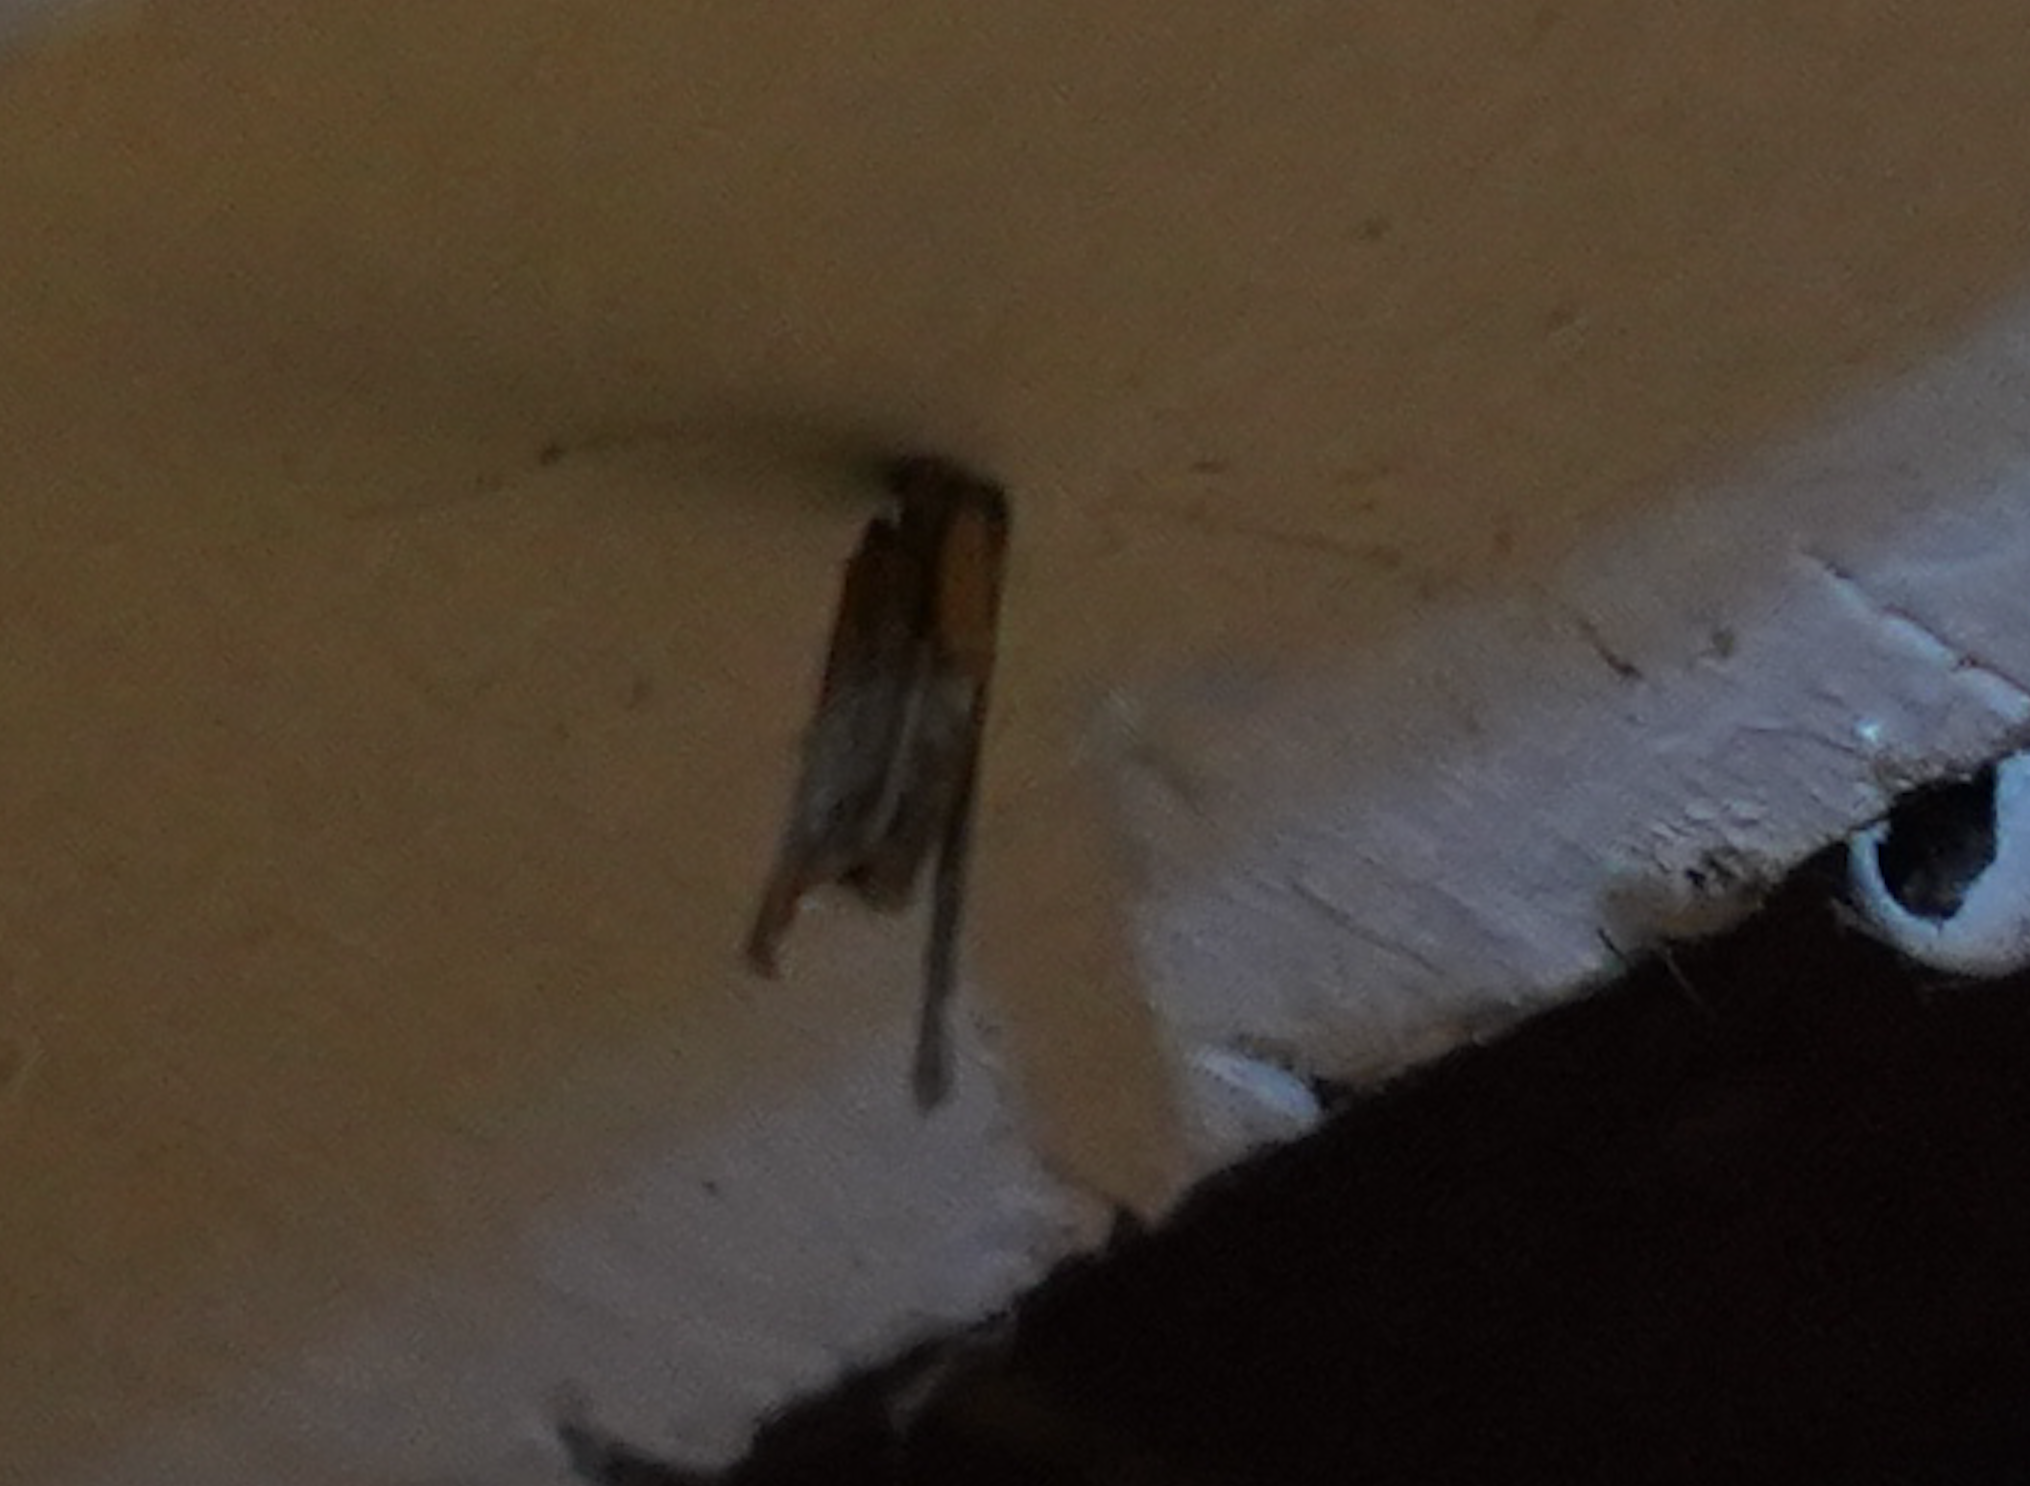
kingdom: Animalia
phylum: Arthropoda
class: Insecta
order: Lepidoptera
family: Psychidae
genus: Psyche
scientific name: Psyche casta
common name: Common sweep
